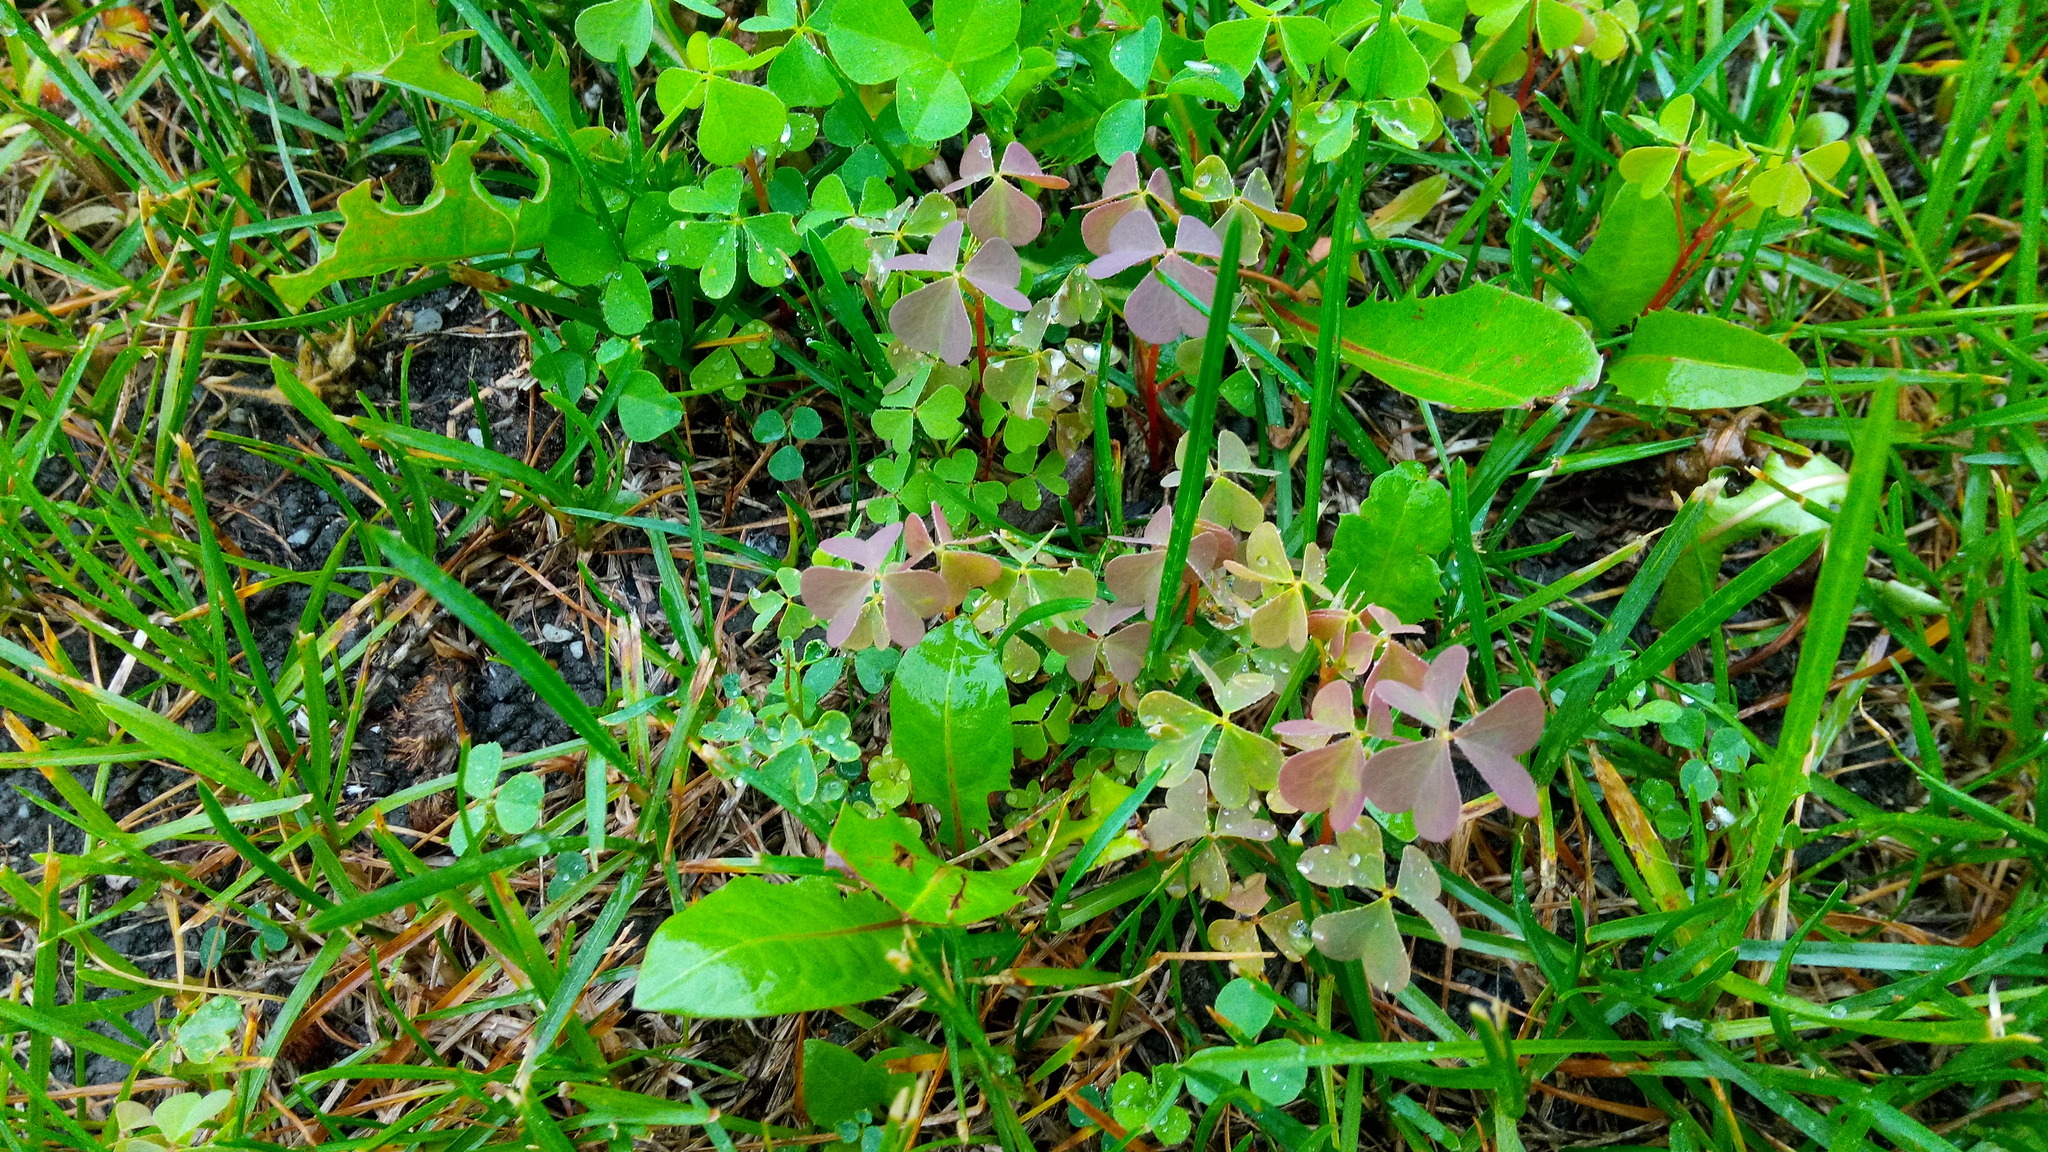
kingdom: Plantae
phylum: Tracheophyta
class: Magnoliopsida
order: Oxalidales
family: Oxalidaceae
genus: Oxalis
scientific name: Oxalis stricta
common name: Upright yellow-sorrel
